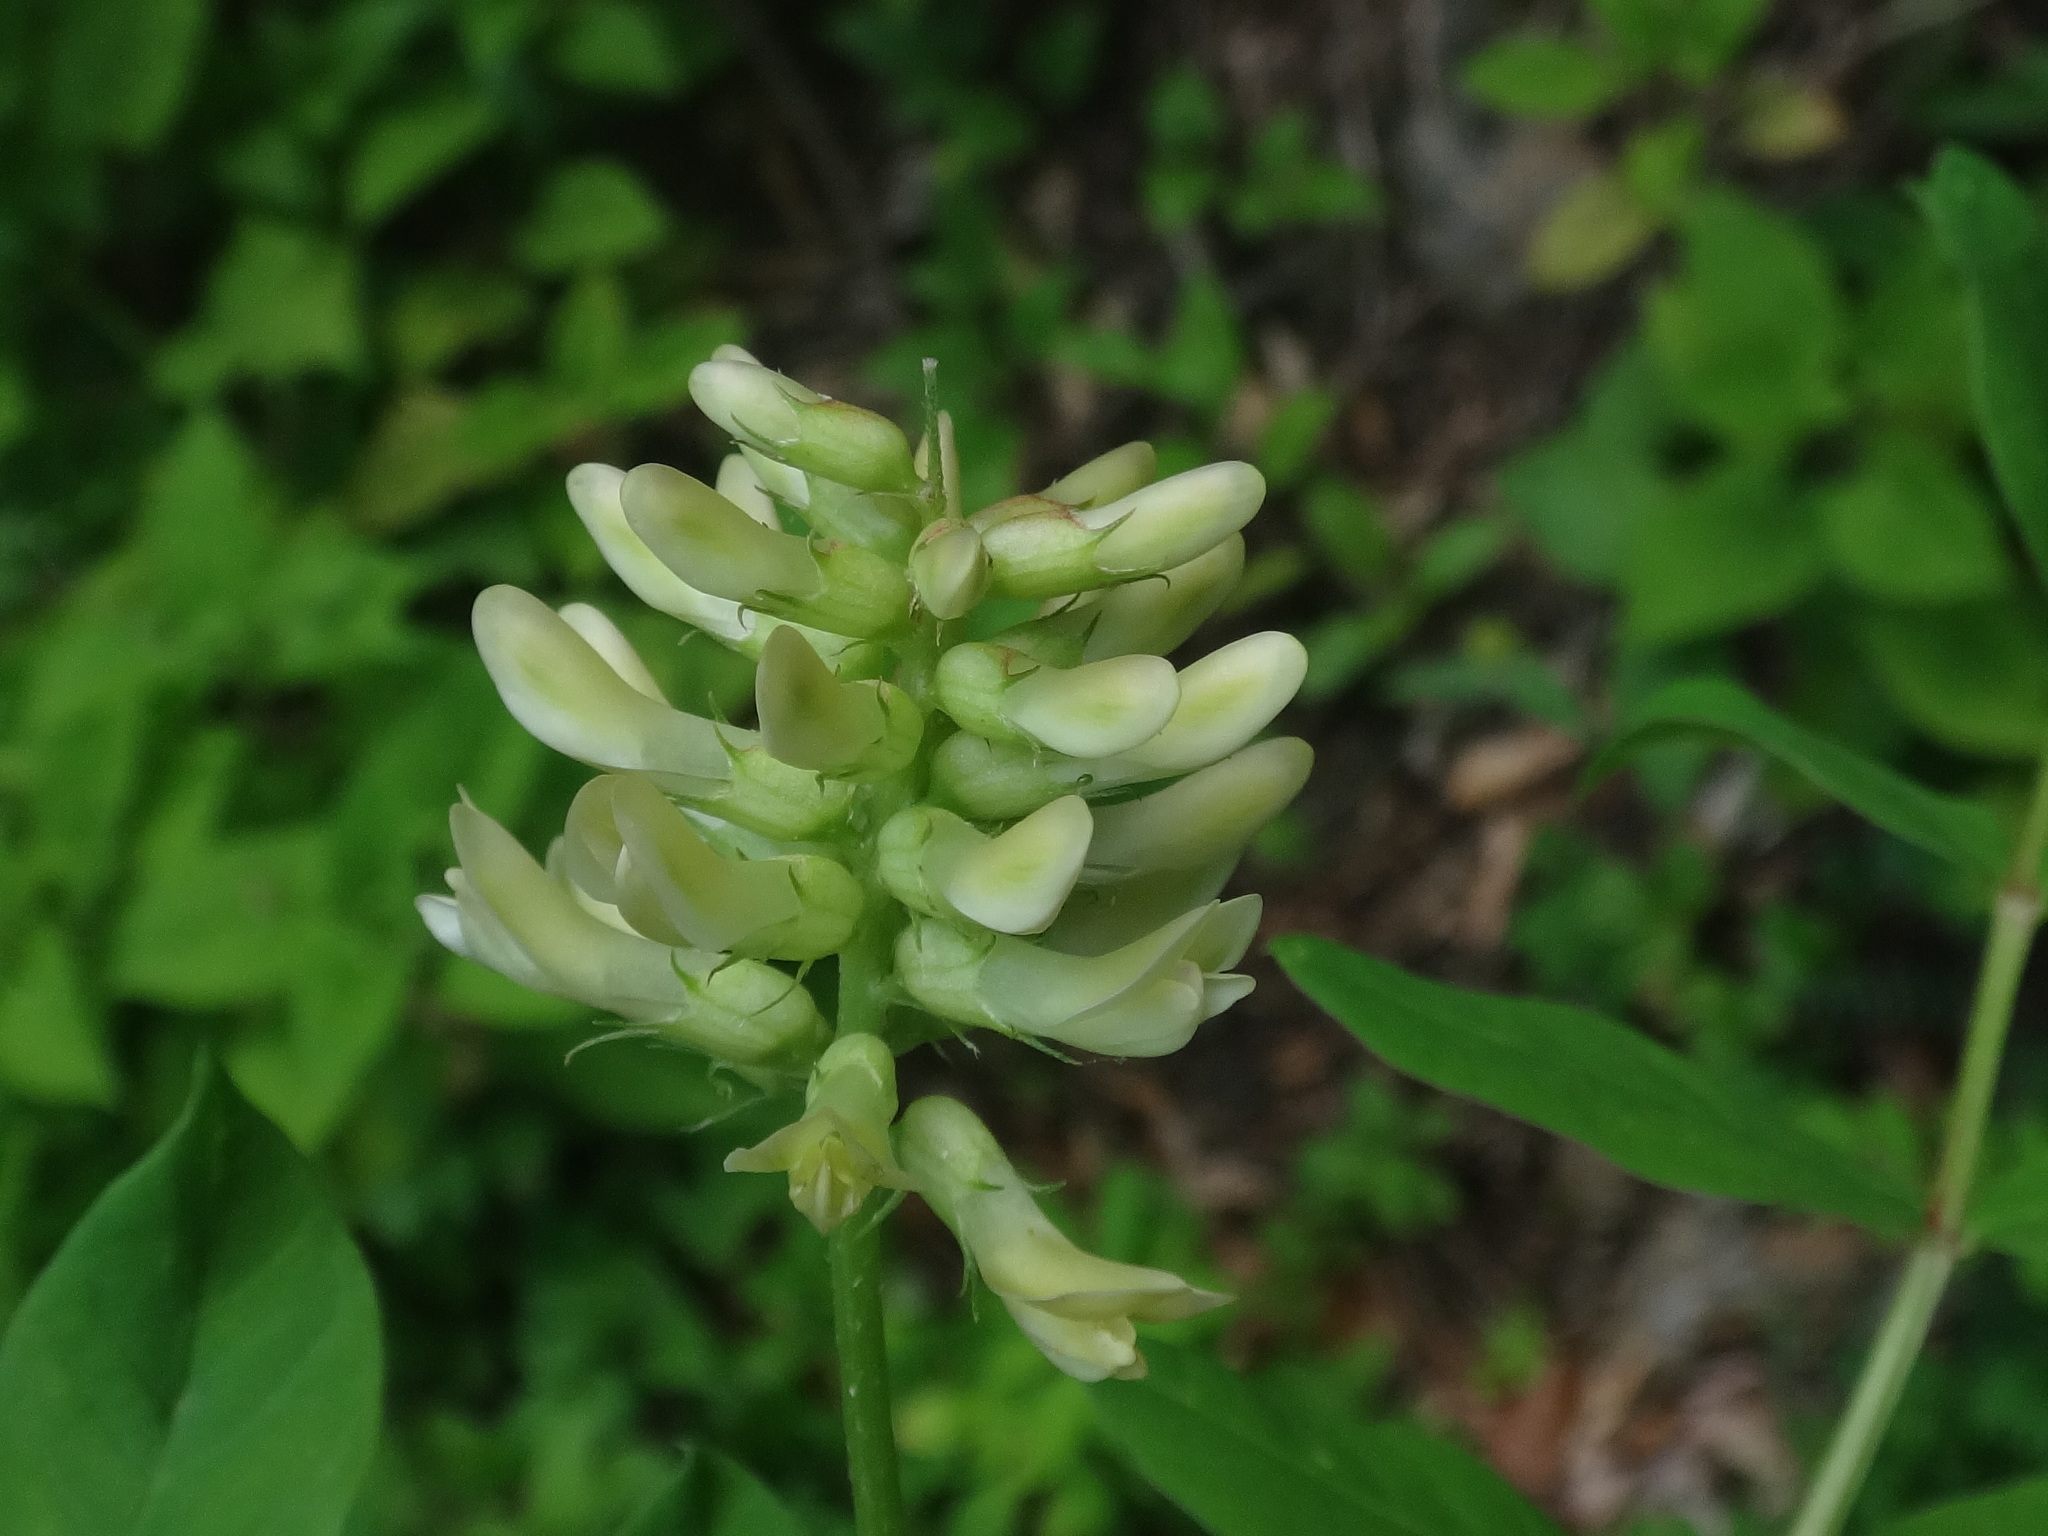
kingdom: Plantae
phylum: Tracheophyta
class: Magnoliopsida
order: Fabales
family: Fabaceae
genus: Astragalus
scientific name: Astragalus glycyphyllos
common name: Wild liquorice
